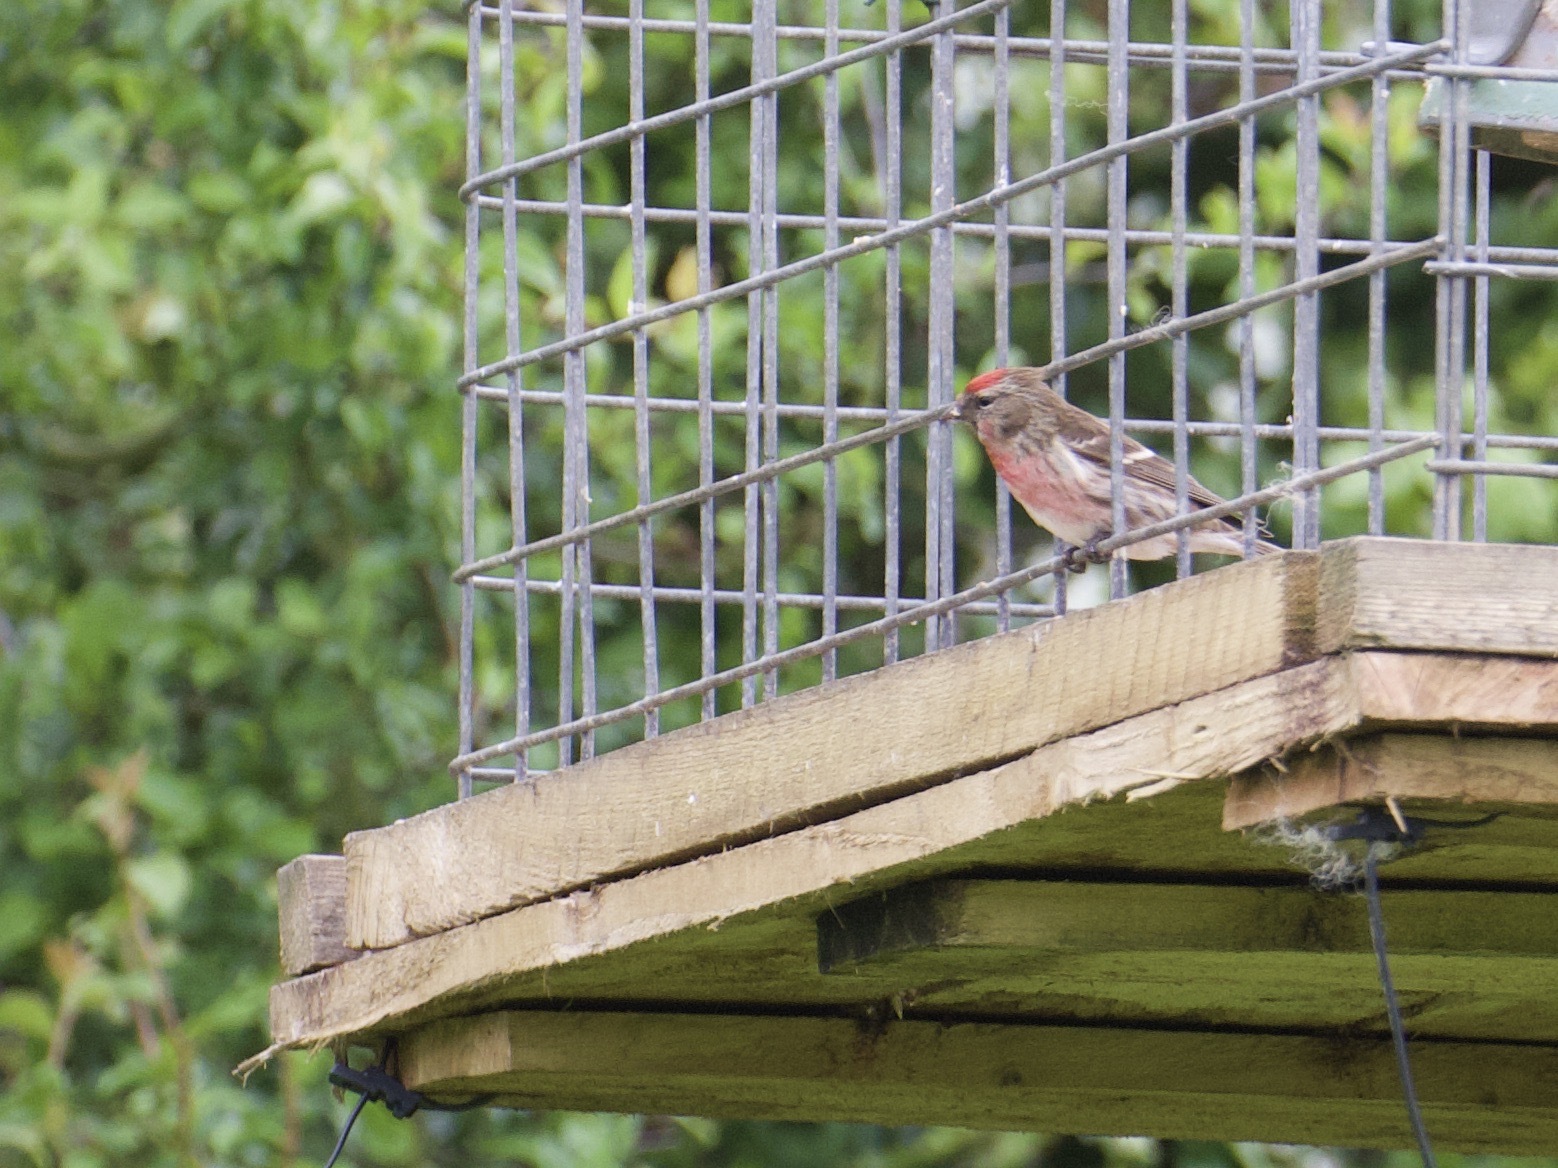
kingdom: Animalia
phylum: Chordata
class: Aves
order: Passeriformes
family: Fringillidae
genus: Acanthis
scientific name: Acanthis flammea
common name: Common redpoll
